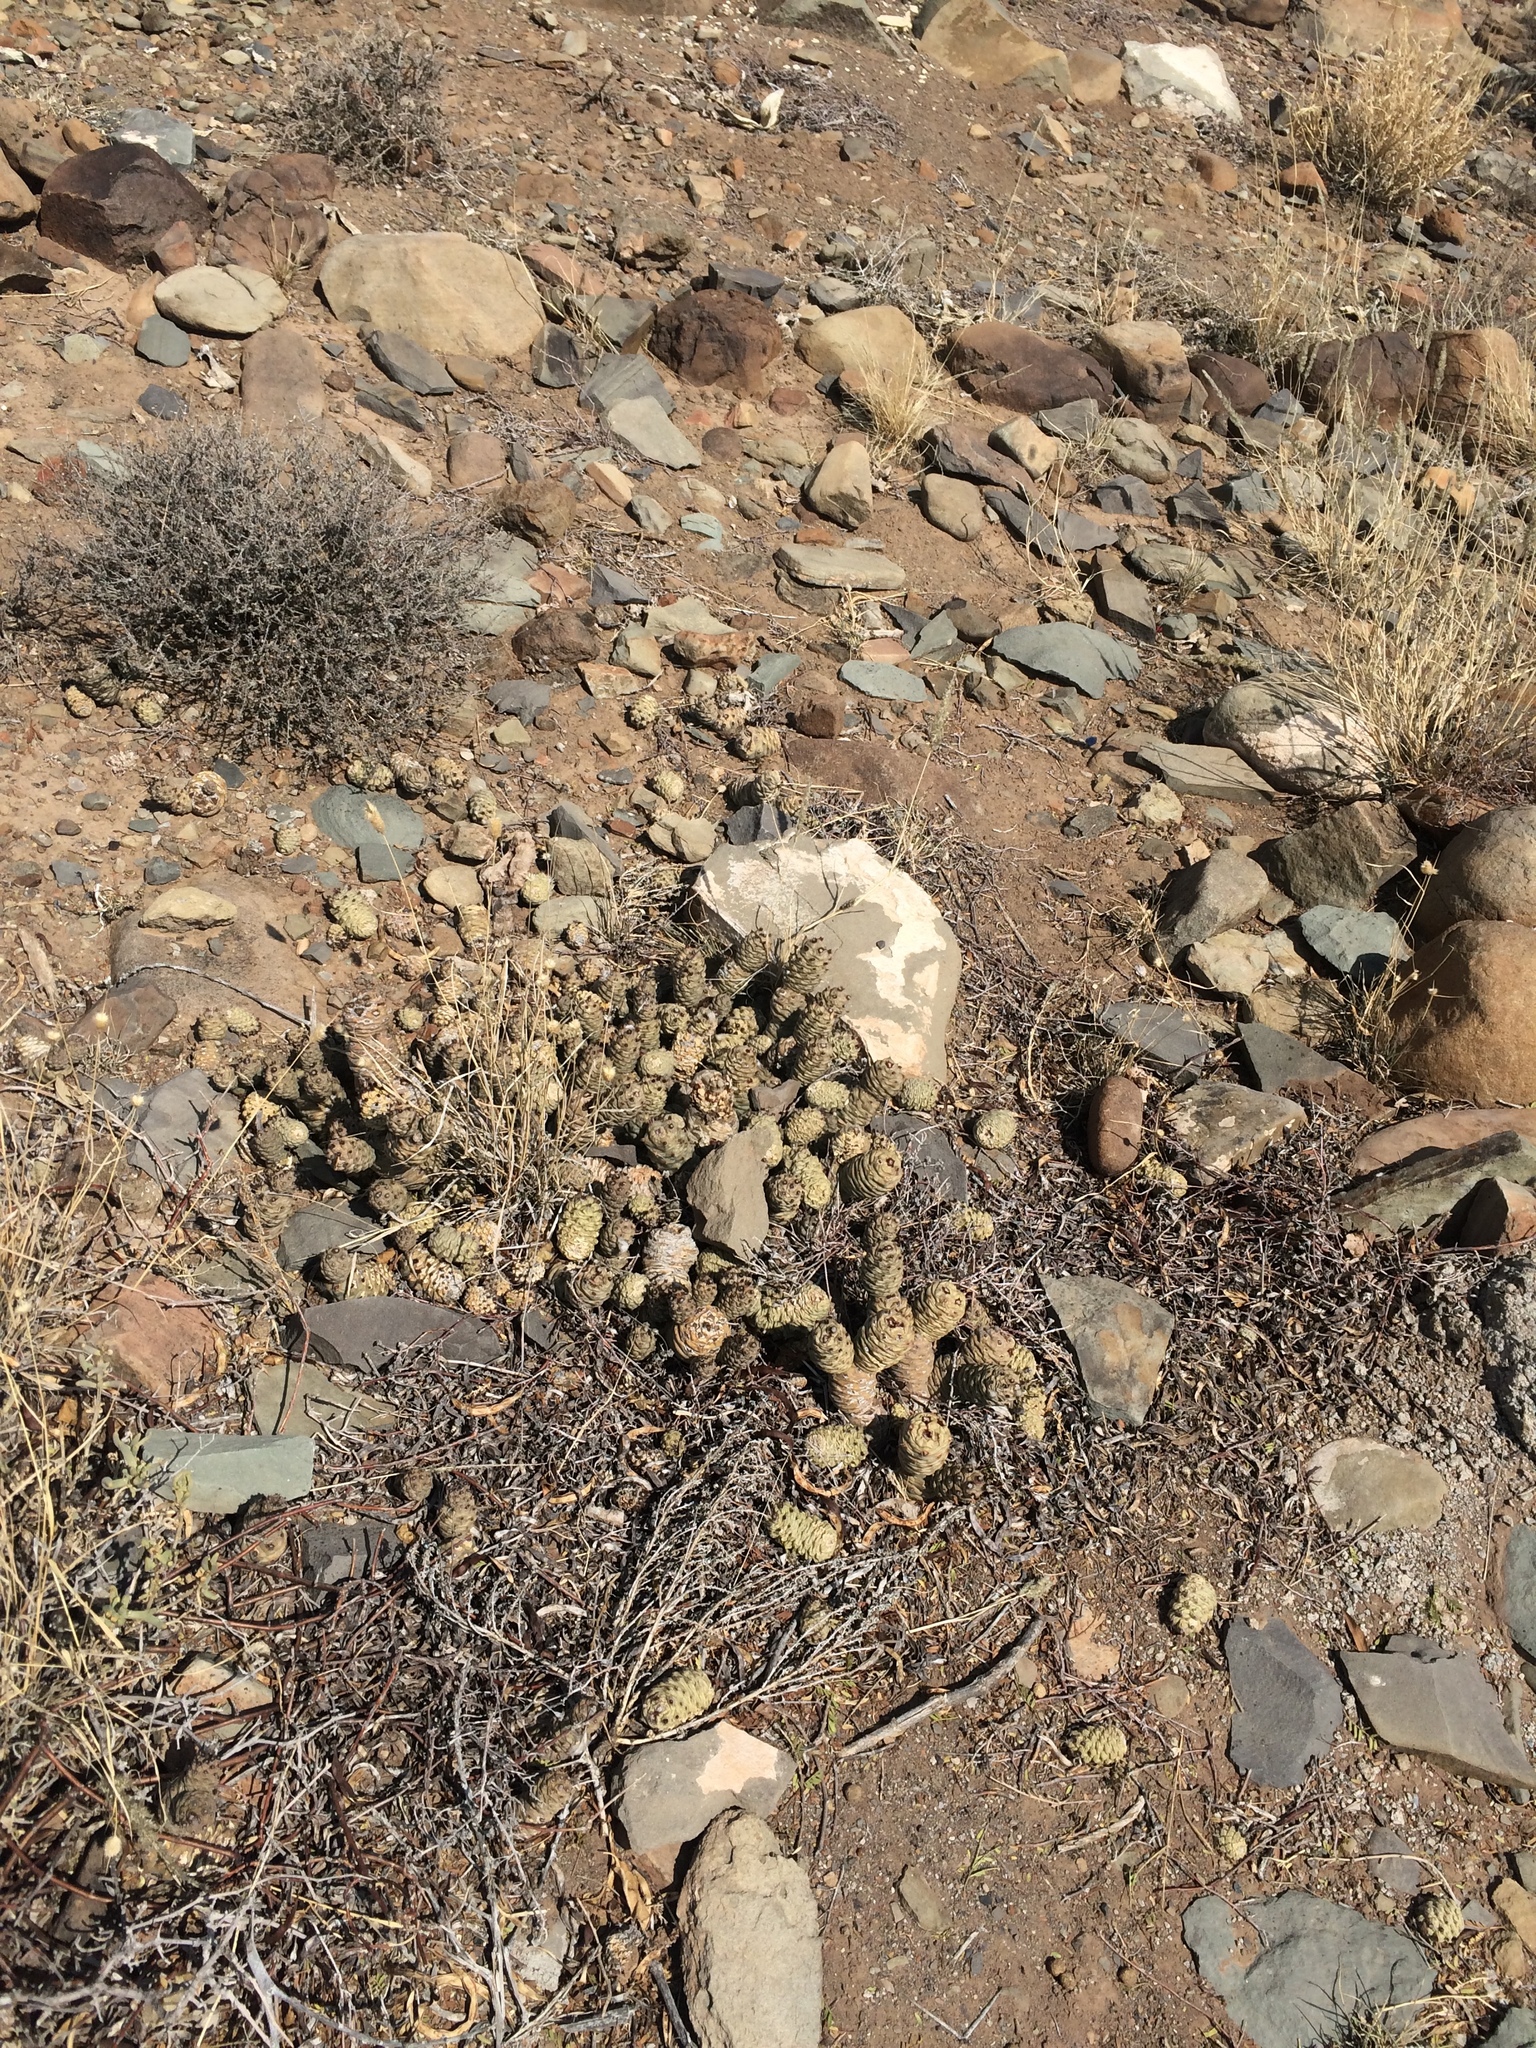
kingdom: Plantae
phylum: Tracheophyta
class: Magnoliopsida
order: Caryophyllales
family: Cactaceae
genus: Tephrocactus
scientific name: Tephrocactus articulatus
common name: Paper cactus
